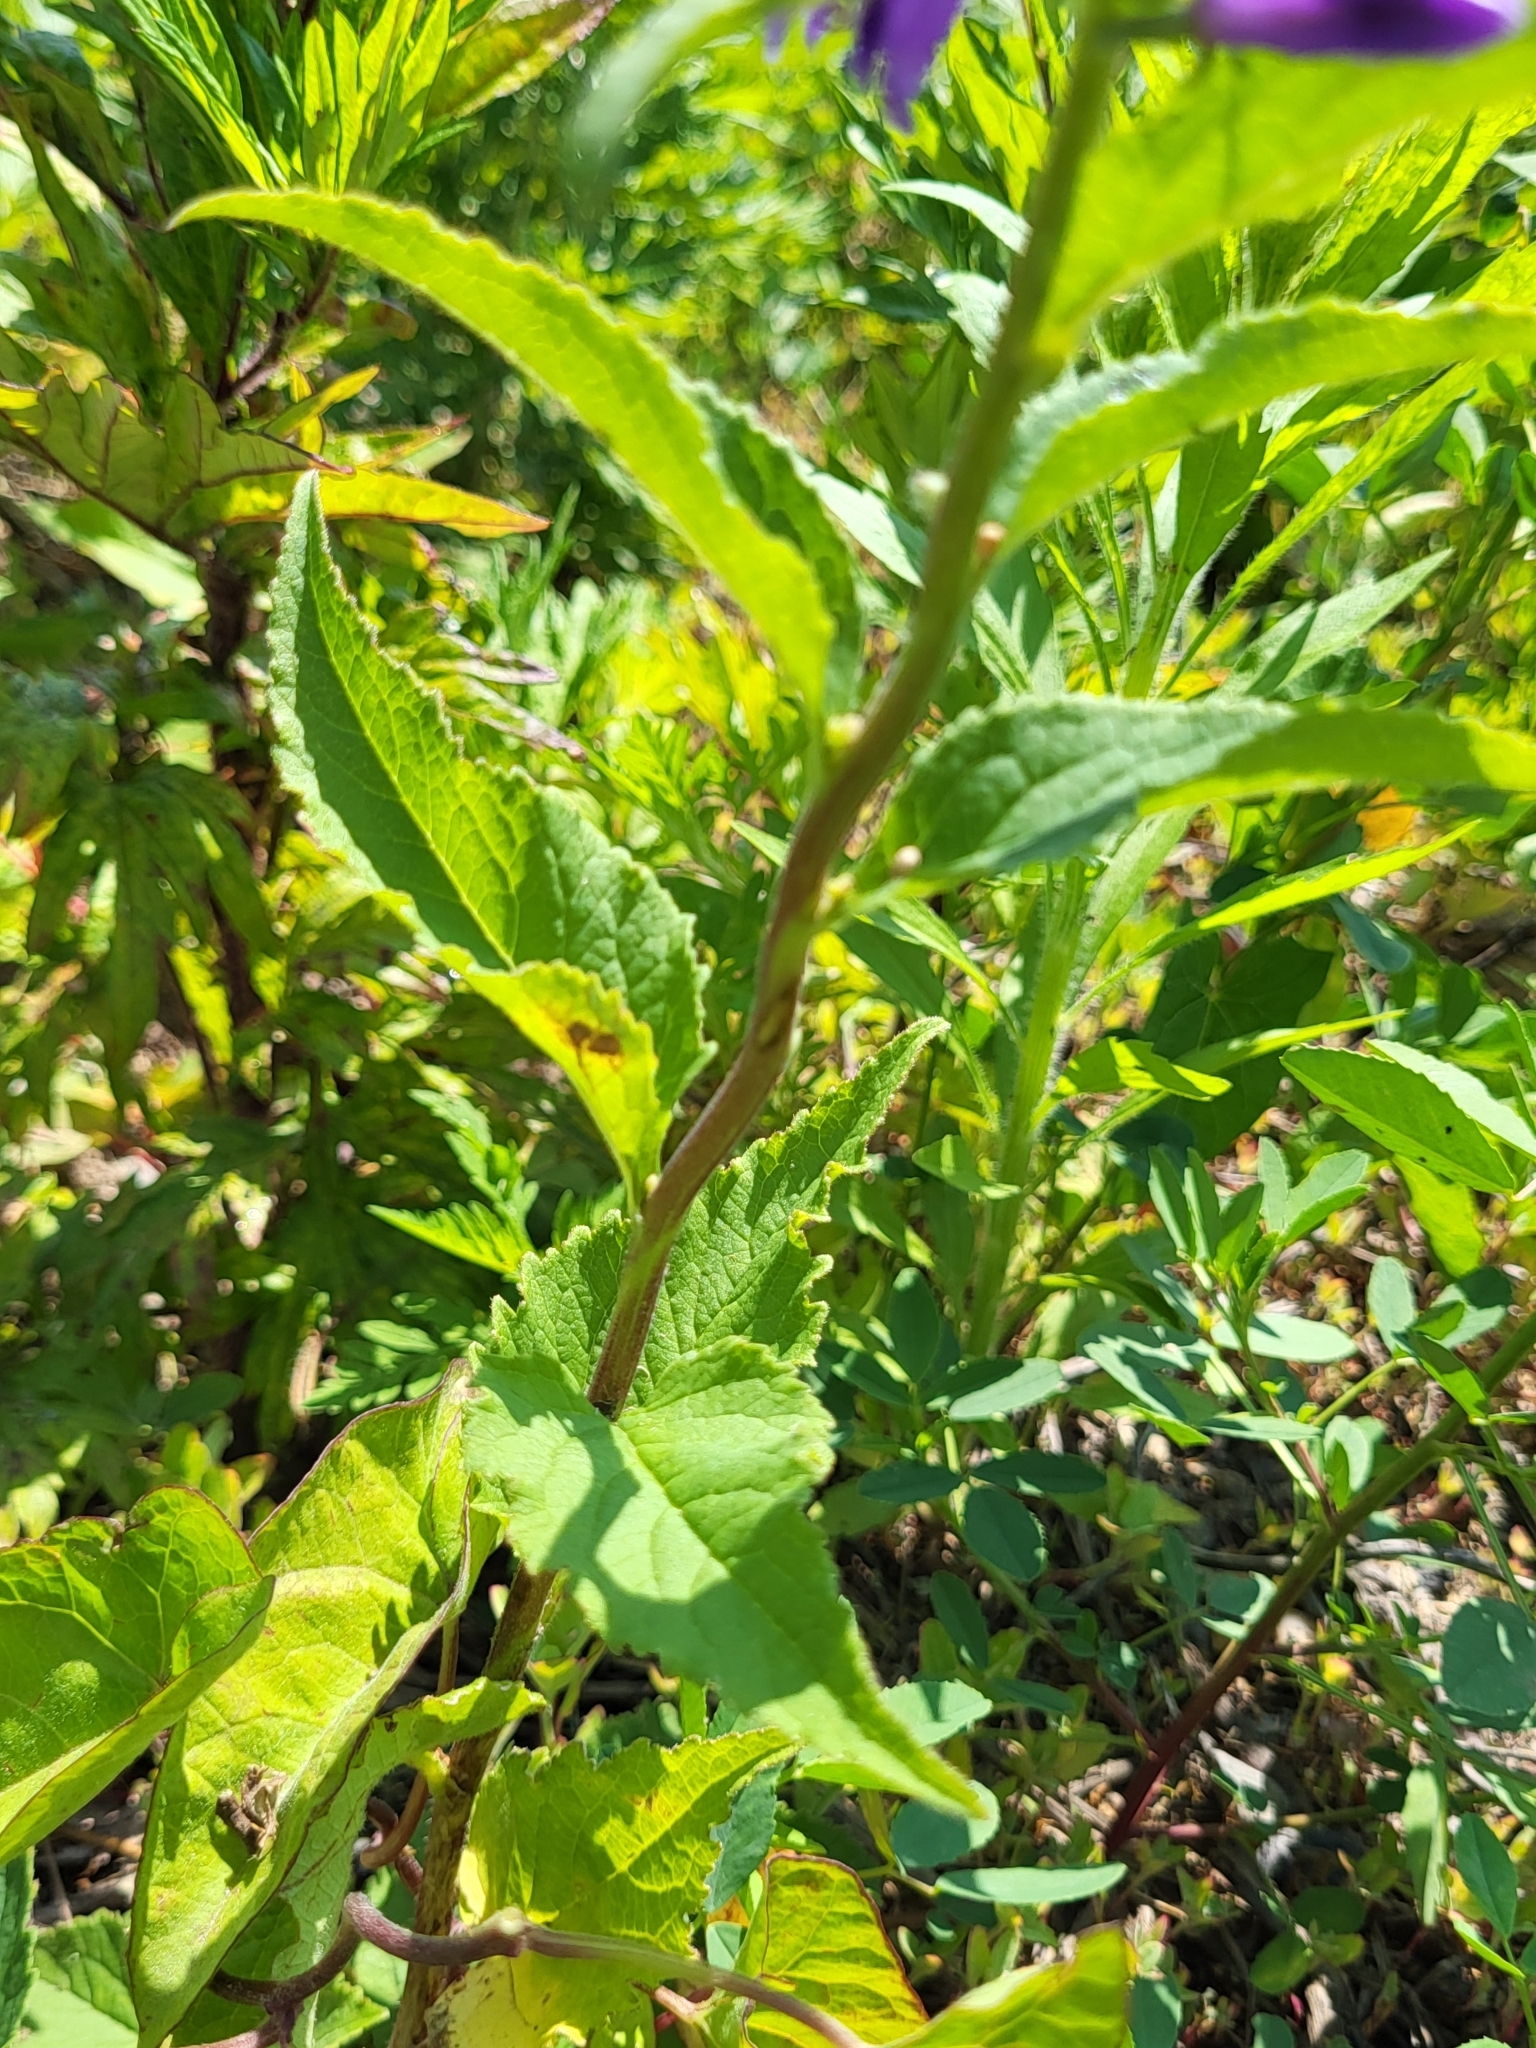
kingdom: Plantae
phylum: Tracheophyta
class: Magnoliopsida
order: Asterales
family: Campanulaceae
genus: Campanula
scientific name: Campanula rapunculoides
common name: Creeping bellflower
